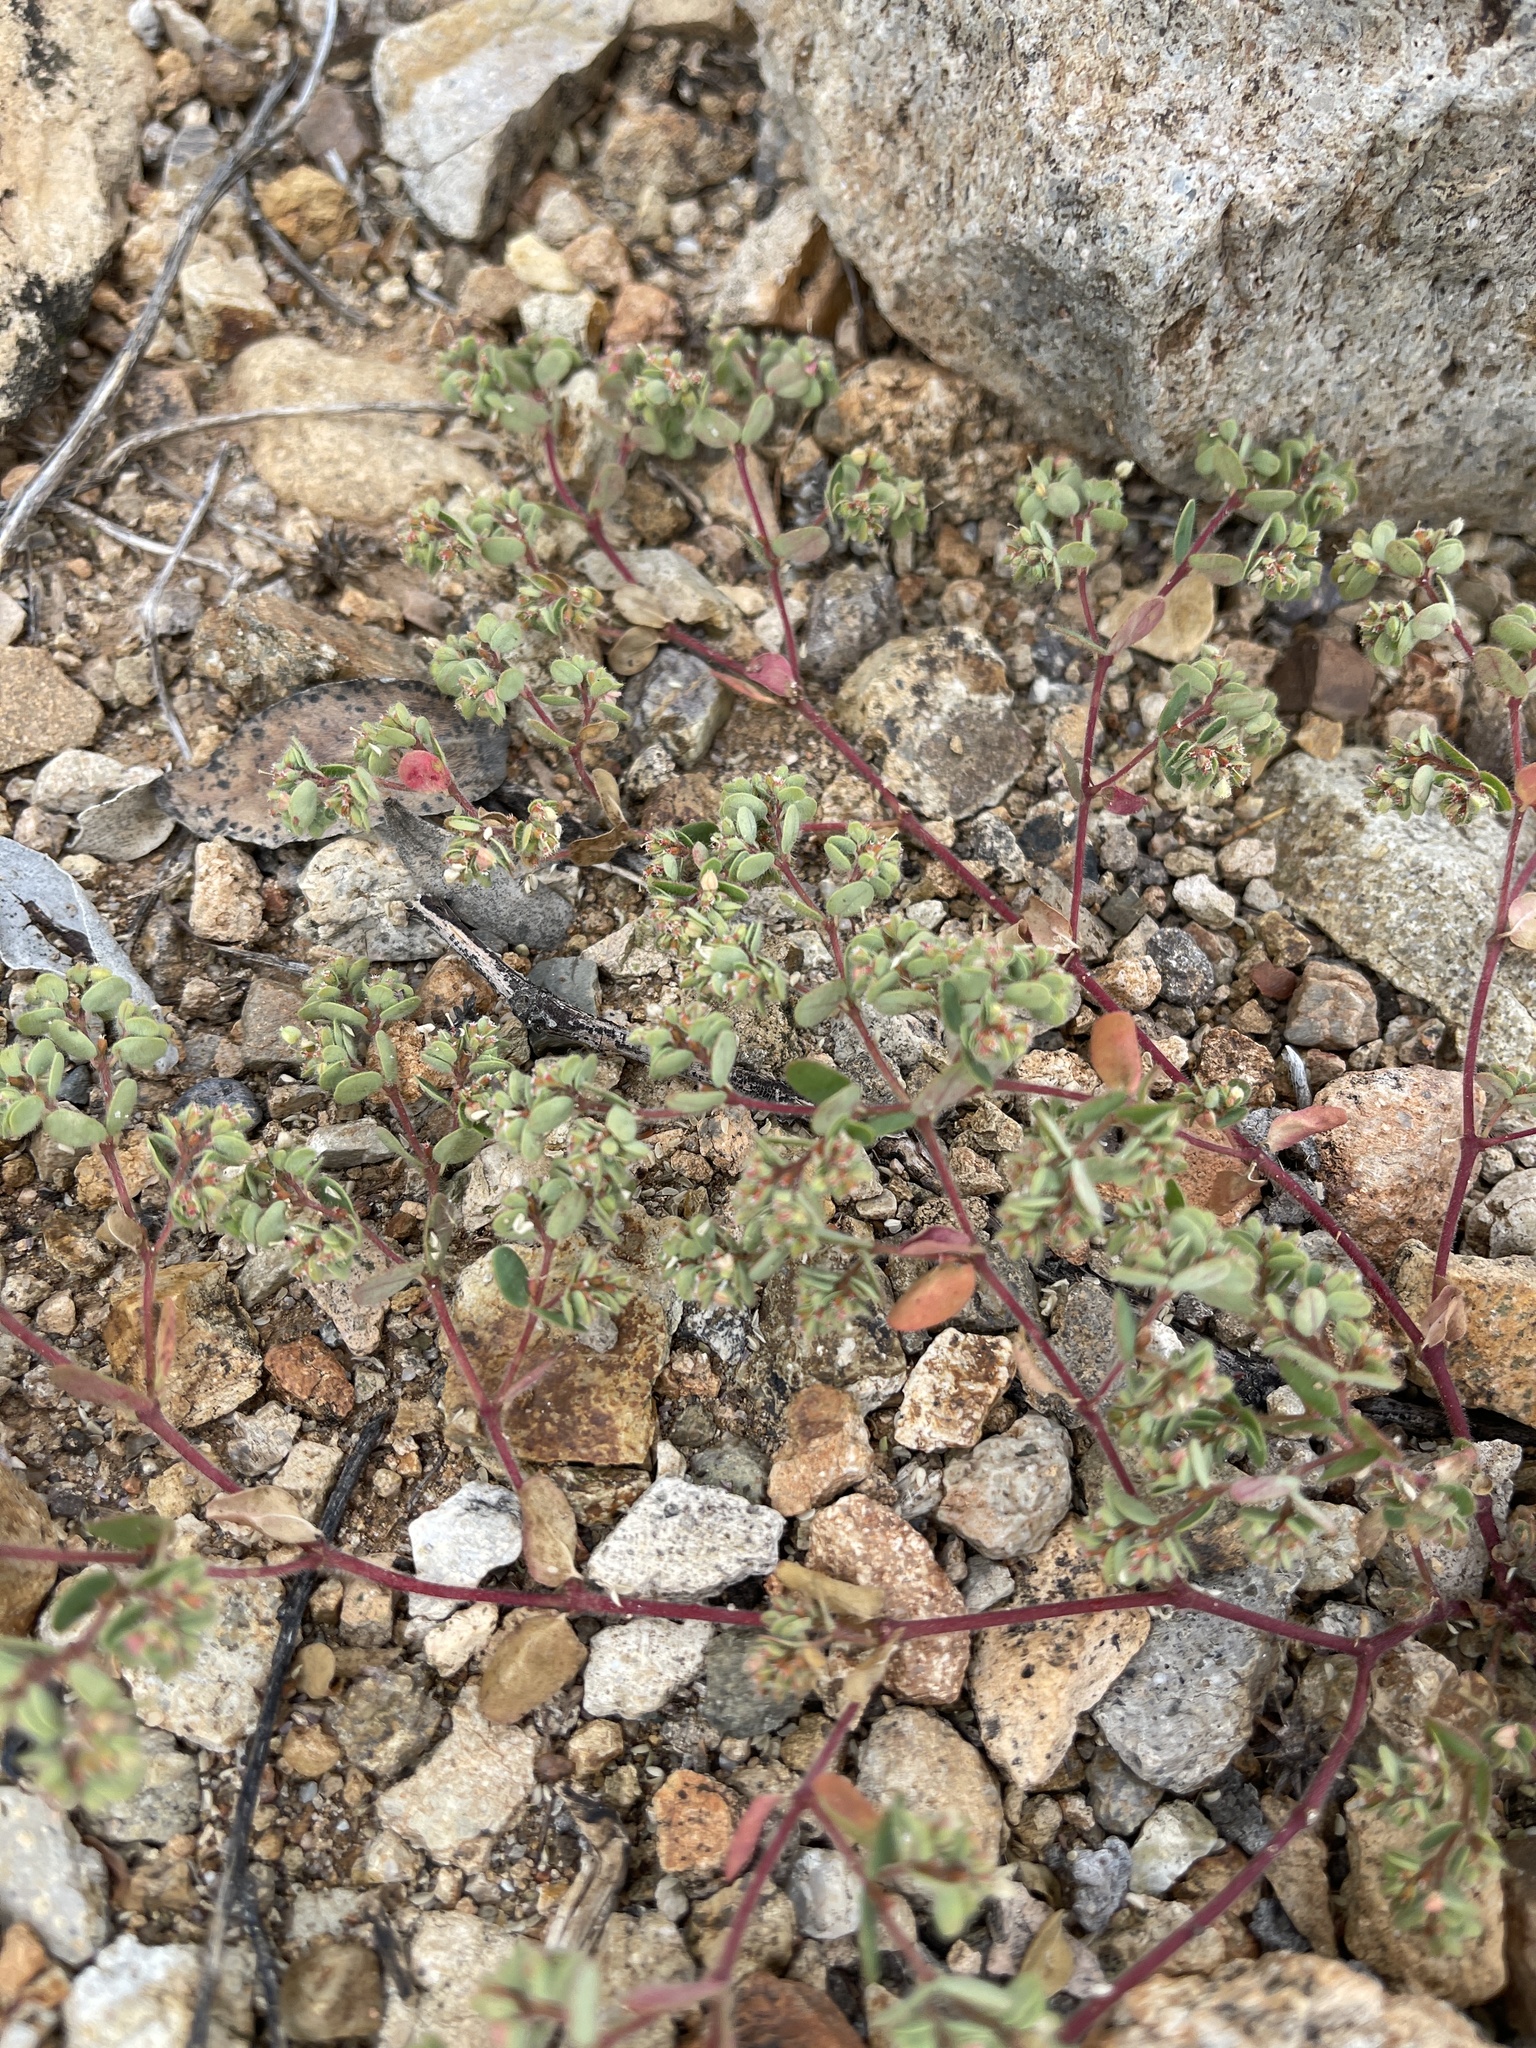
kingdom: Plantae
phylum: Tracheophyta
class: Magnoliopsida
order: Malpighiales
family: Euphorbiaceae
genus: Euphorbia
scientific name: Euphorbia setiloba
